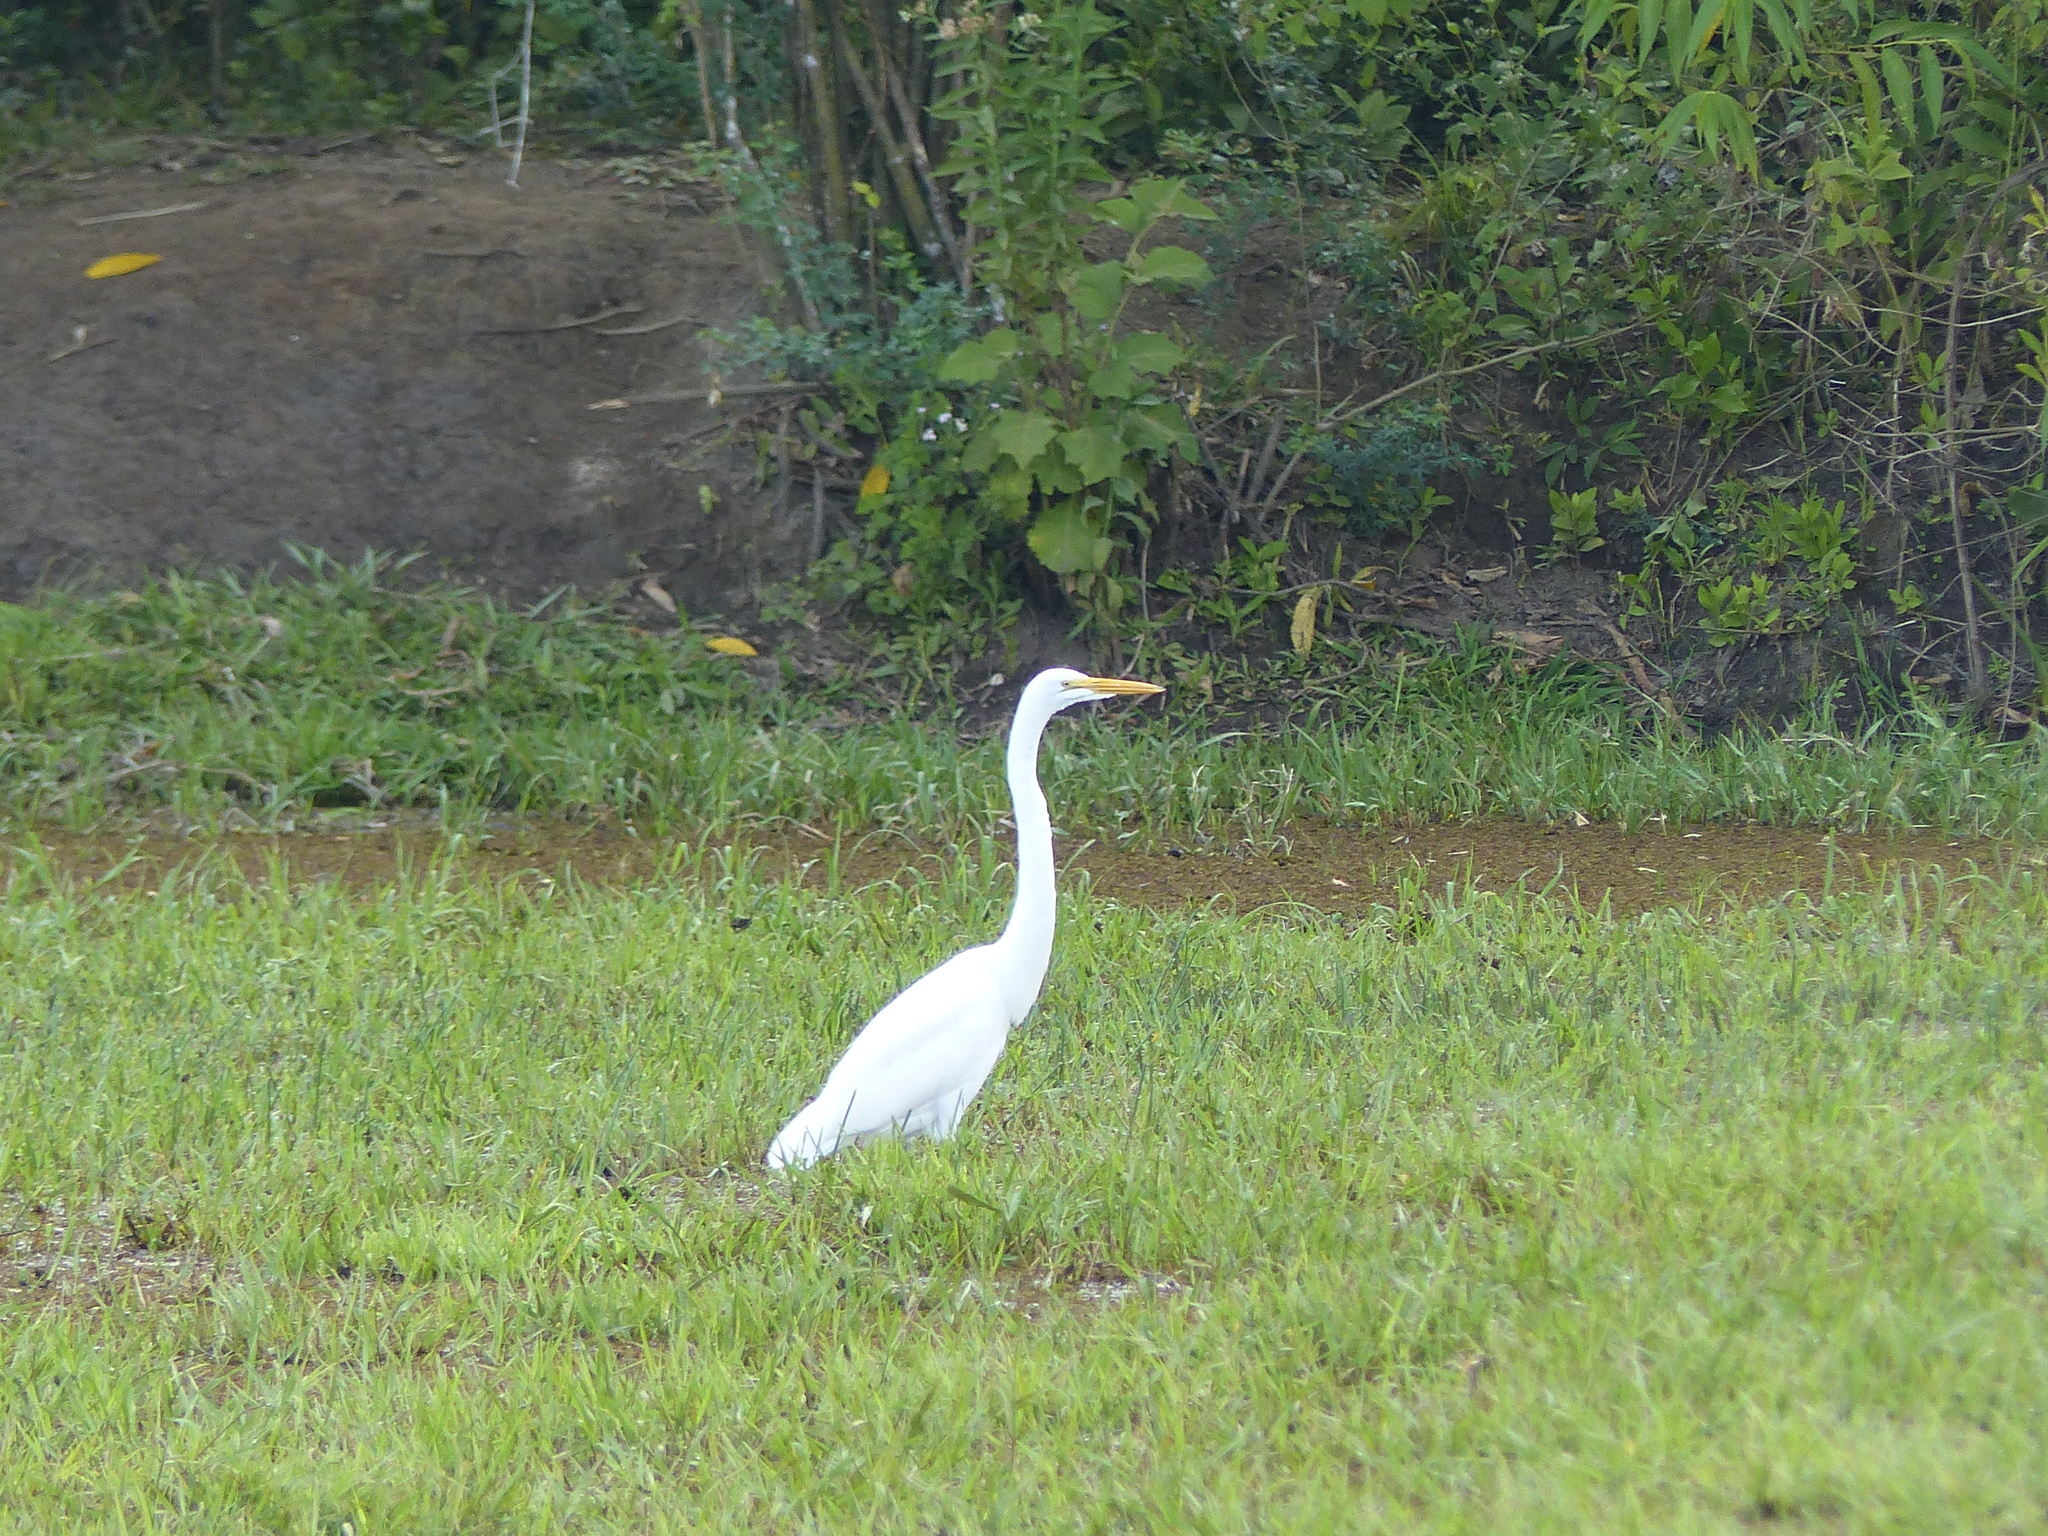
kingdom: Animalia
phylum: Chordata
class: Aves
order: Pelecaniformes
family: Ardeidae
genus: Ardea
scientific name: Ardea alba
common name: Great egret
